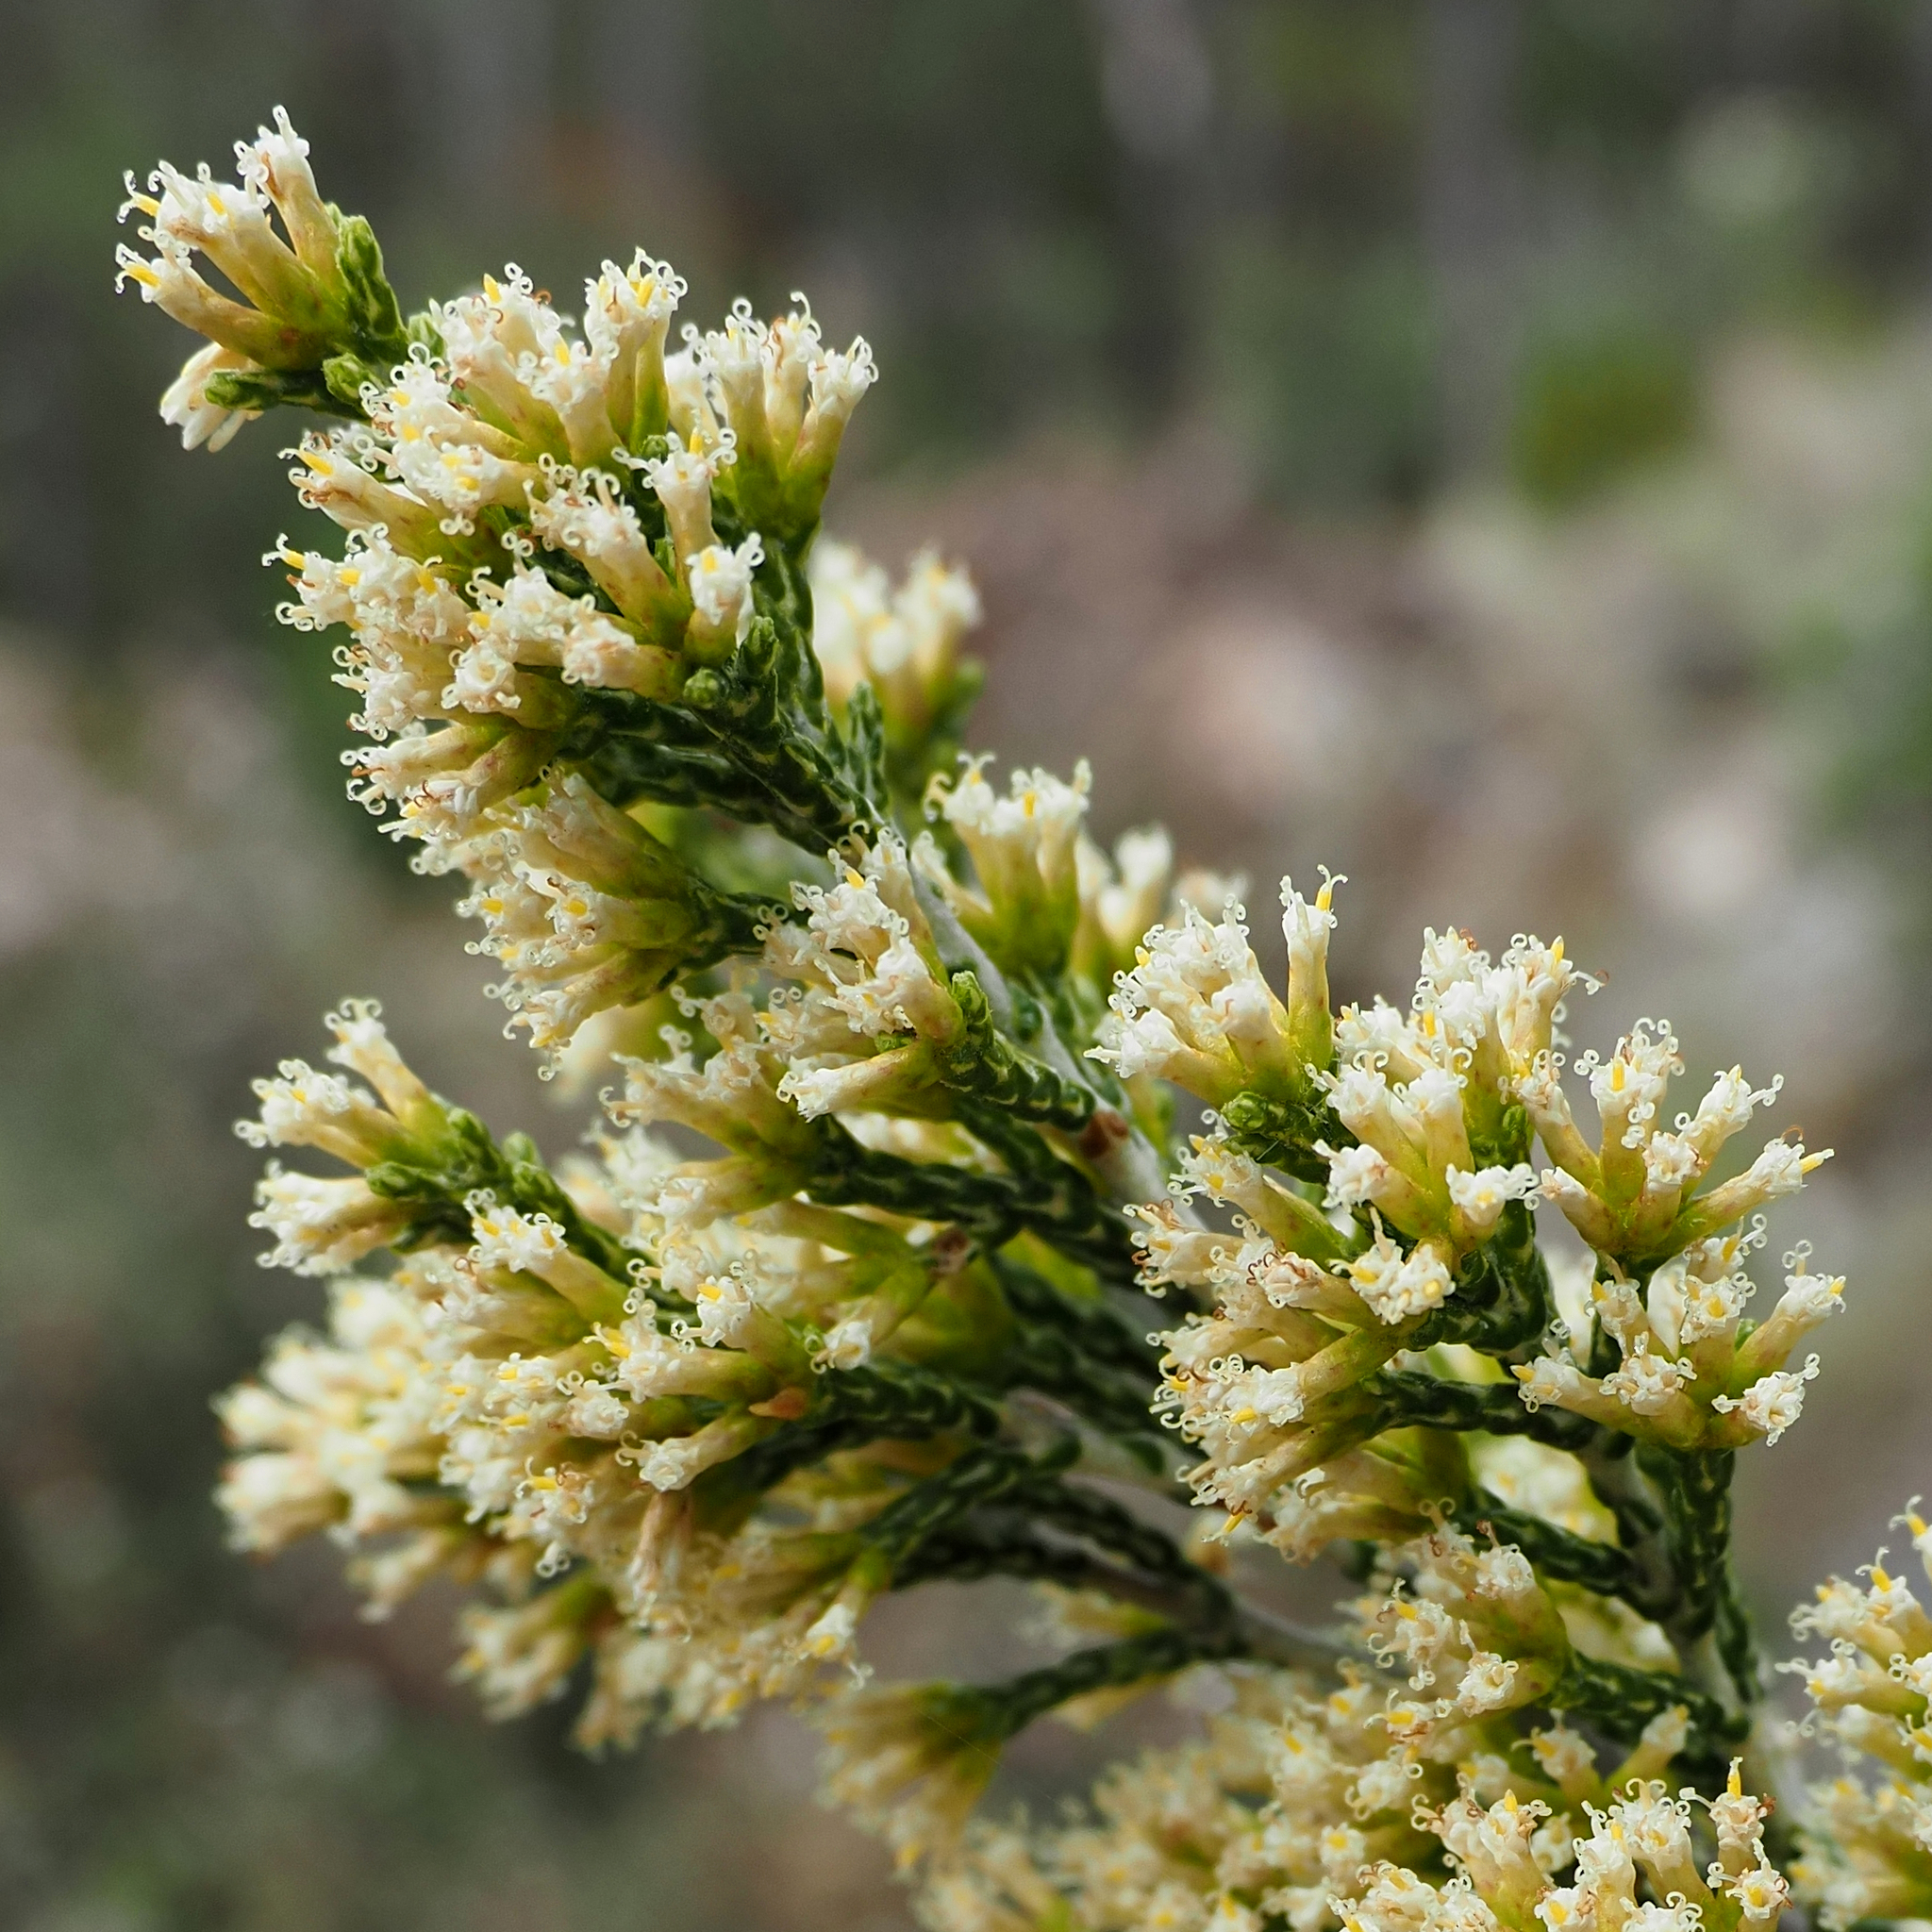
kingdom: Plantae
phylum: Tracheophyta
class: Magnoliopsida
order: Asterales
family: Asteraceae
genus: Ozothamnus
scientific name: Ozothamnus hookeri
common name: Kerosene-bush
